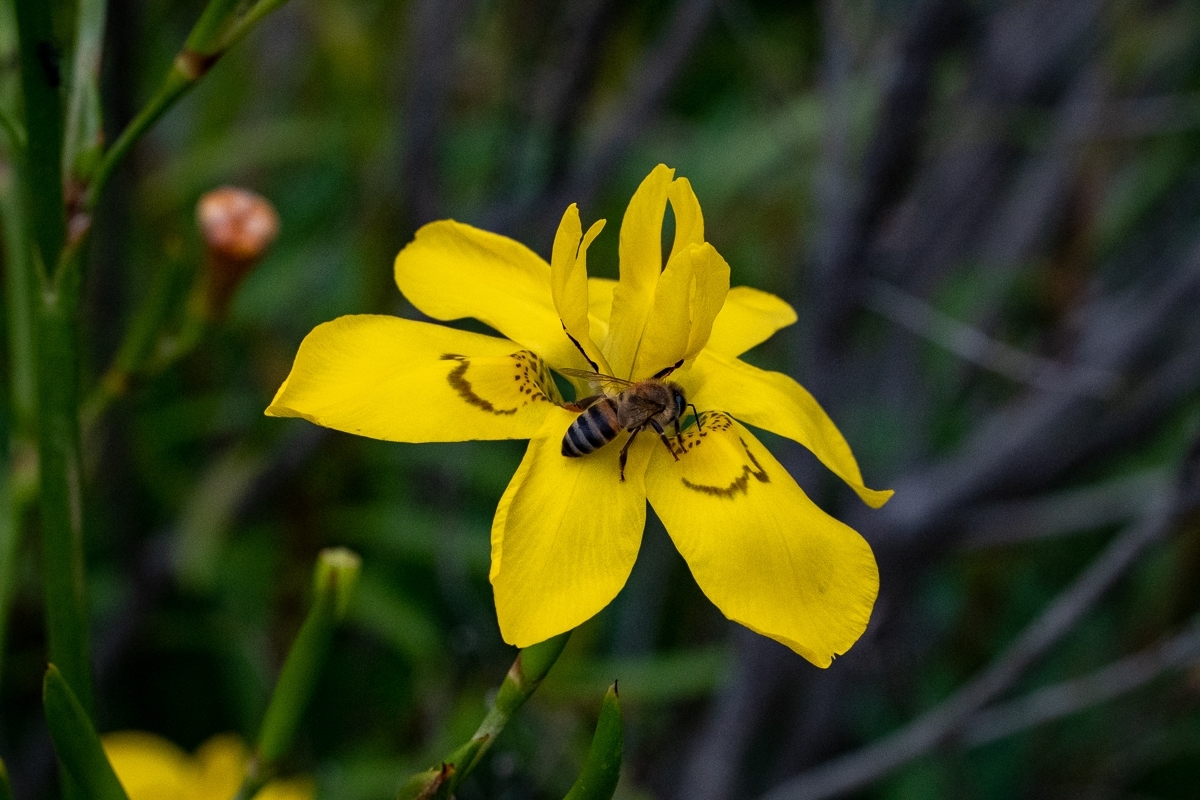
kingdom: Animalia
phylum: Arthropoda
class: Insecta
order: Hymenoptera
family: Apidae
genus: Apis
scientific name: Apis mellifera
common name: Honey bee
